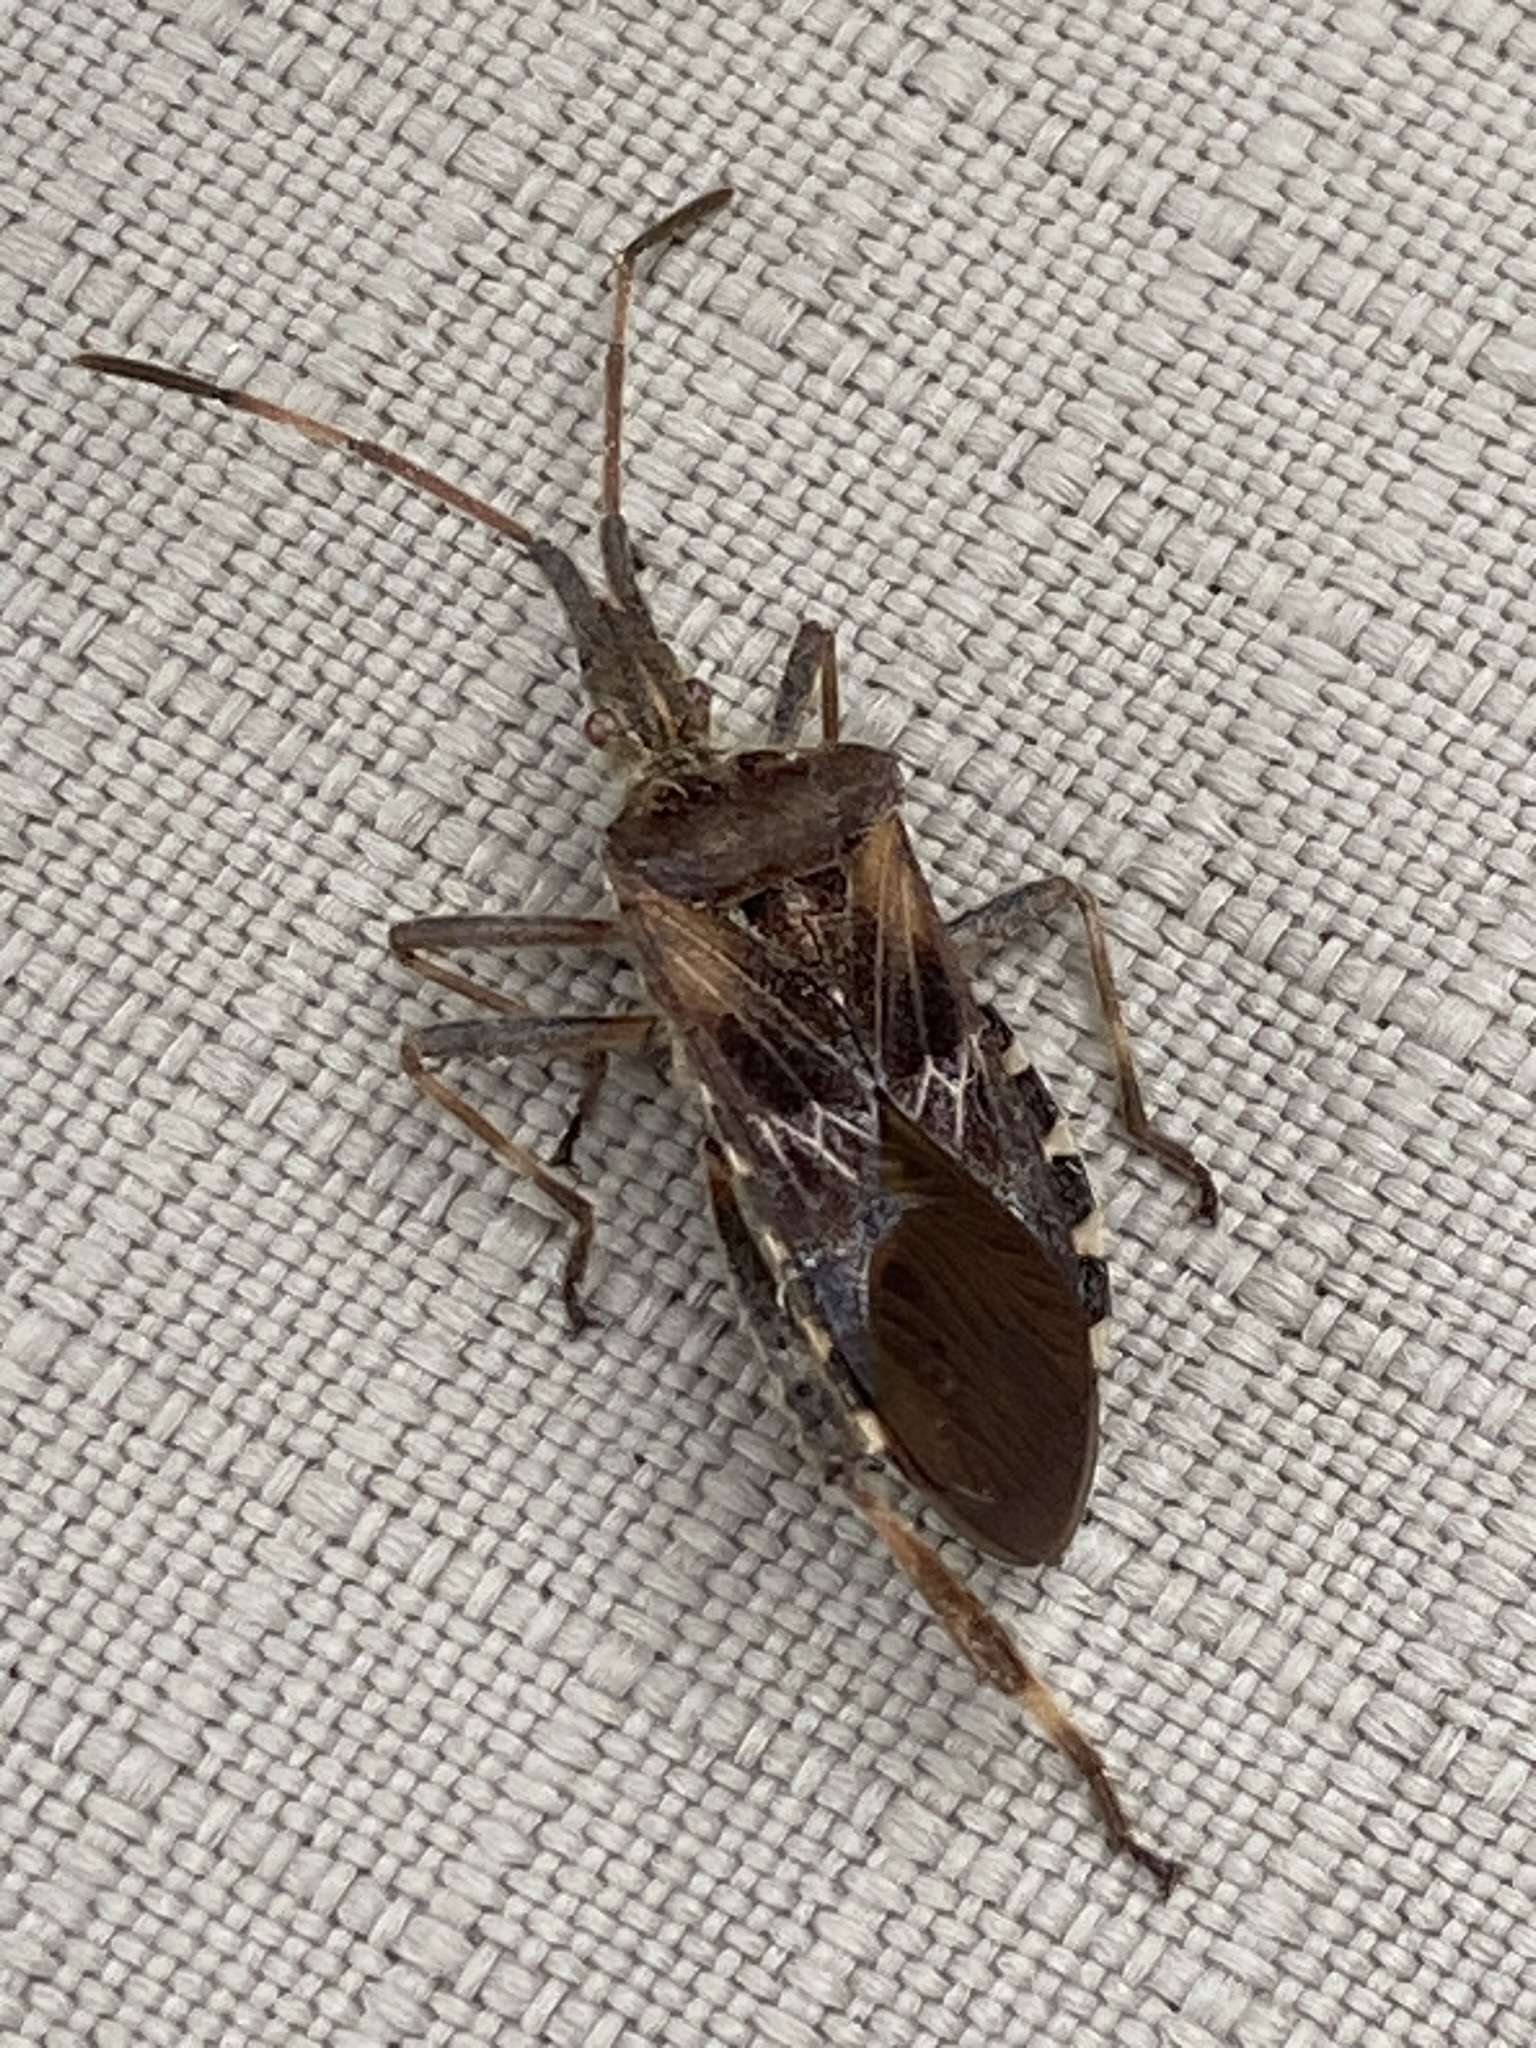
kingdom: Animalia
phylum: Arthropoda
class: Insecta
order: Hemiptera
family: Coreidae
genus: Leptoglossus
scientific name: Leptoglossus occidentalis
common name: Western conifer-seed bug
